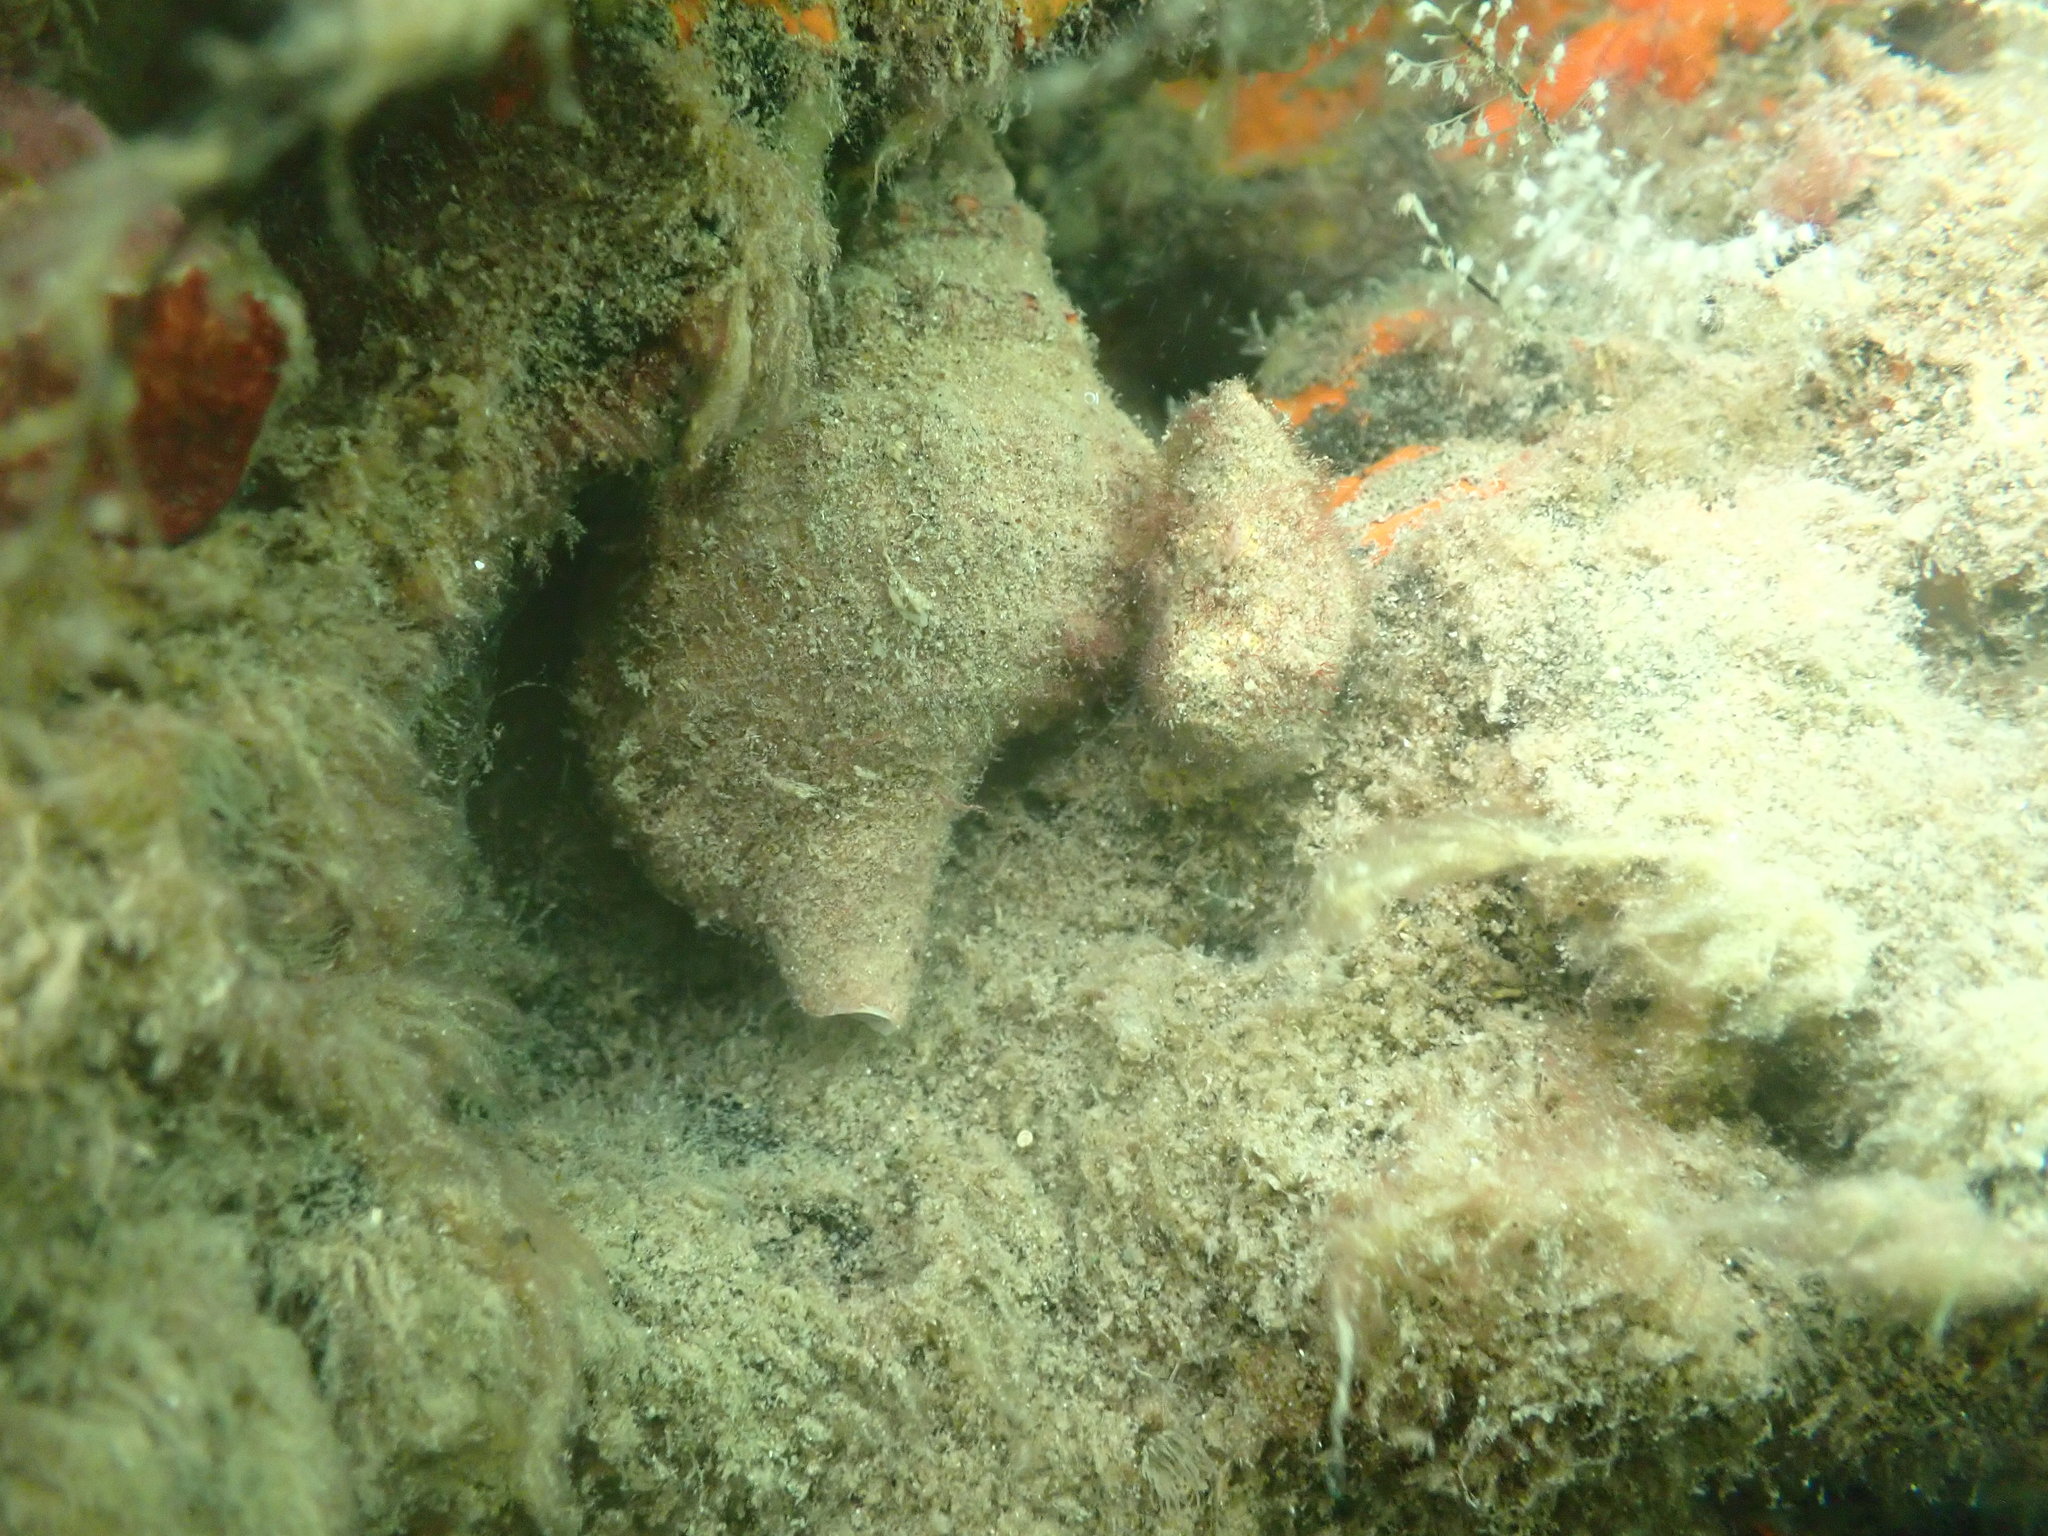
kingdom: Animalia
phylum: Mollusca
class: Gastropoda
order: Littorinimorpha
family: Ranellidae
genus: Ranella
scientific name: Ranella australasia
